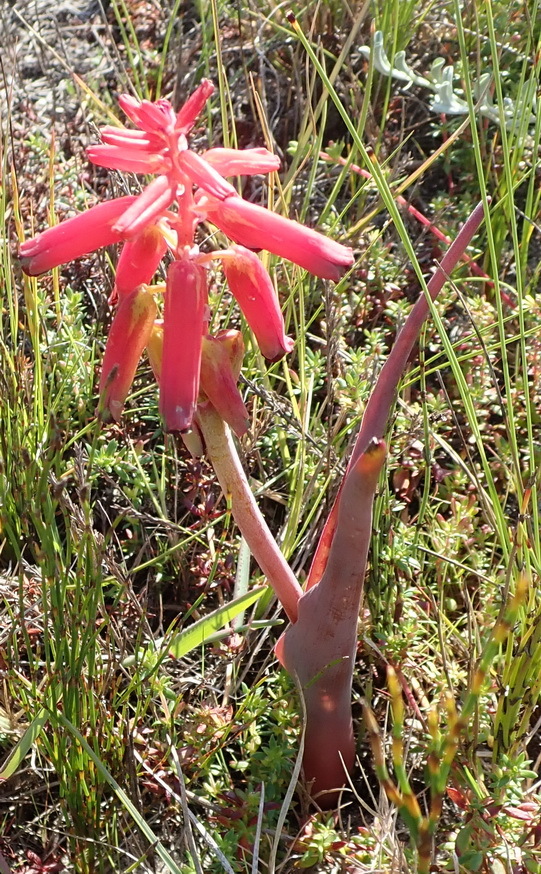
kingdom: Plantae
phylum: Tracheophyta
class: Liliopsida
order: Asparagales
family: Asparagaceae
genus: Lachenalia
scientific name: Lachenalia bulbifera
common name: Red lachenalia
